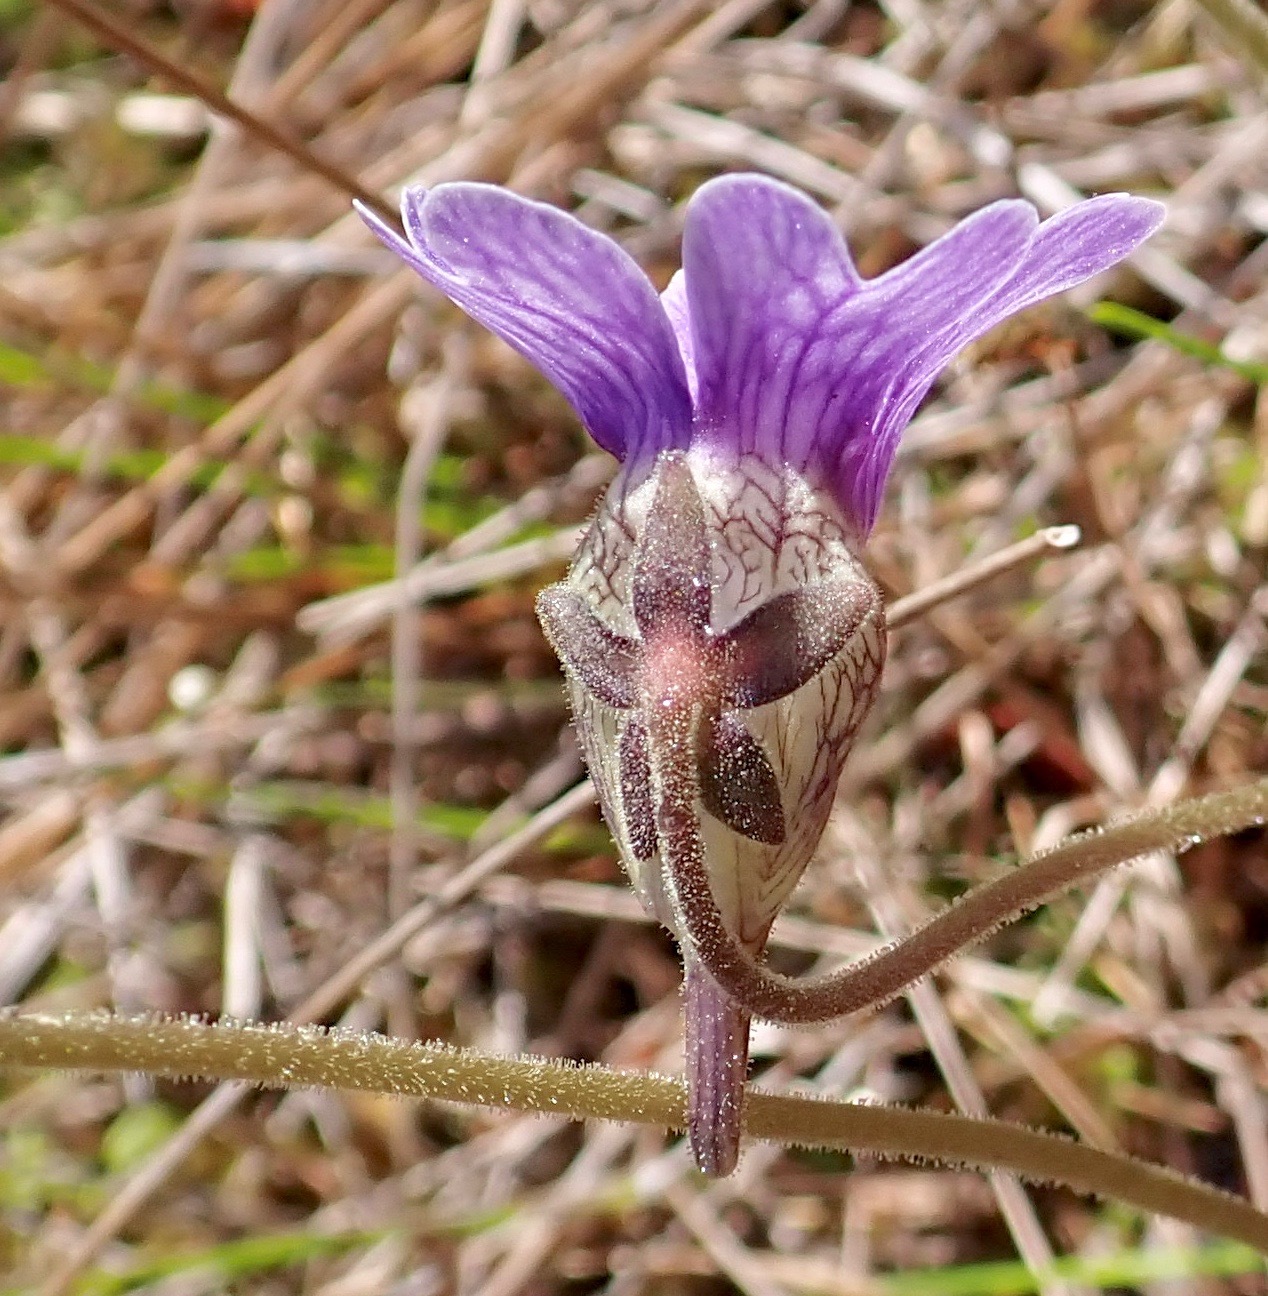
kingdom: Plantae
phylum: Tracheophyta
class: Magnoliopsida
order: Lamiales
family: Lentibulariaceae
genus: Pinguicula
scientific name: Pinguicula caerulea
